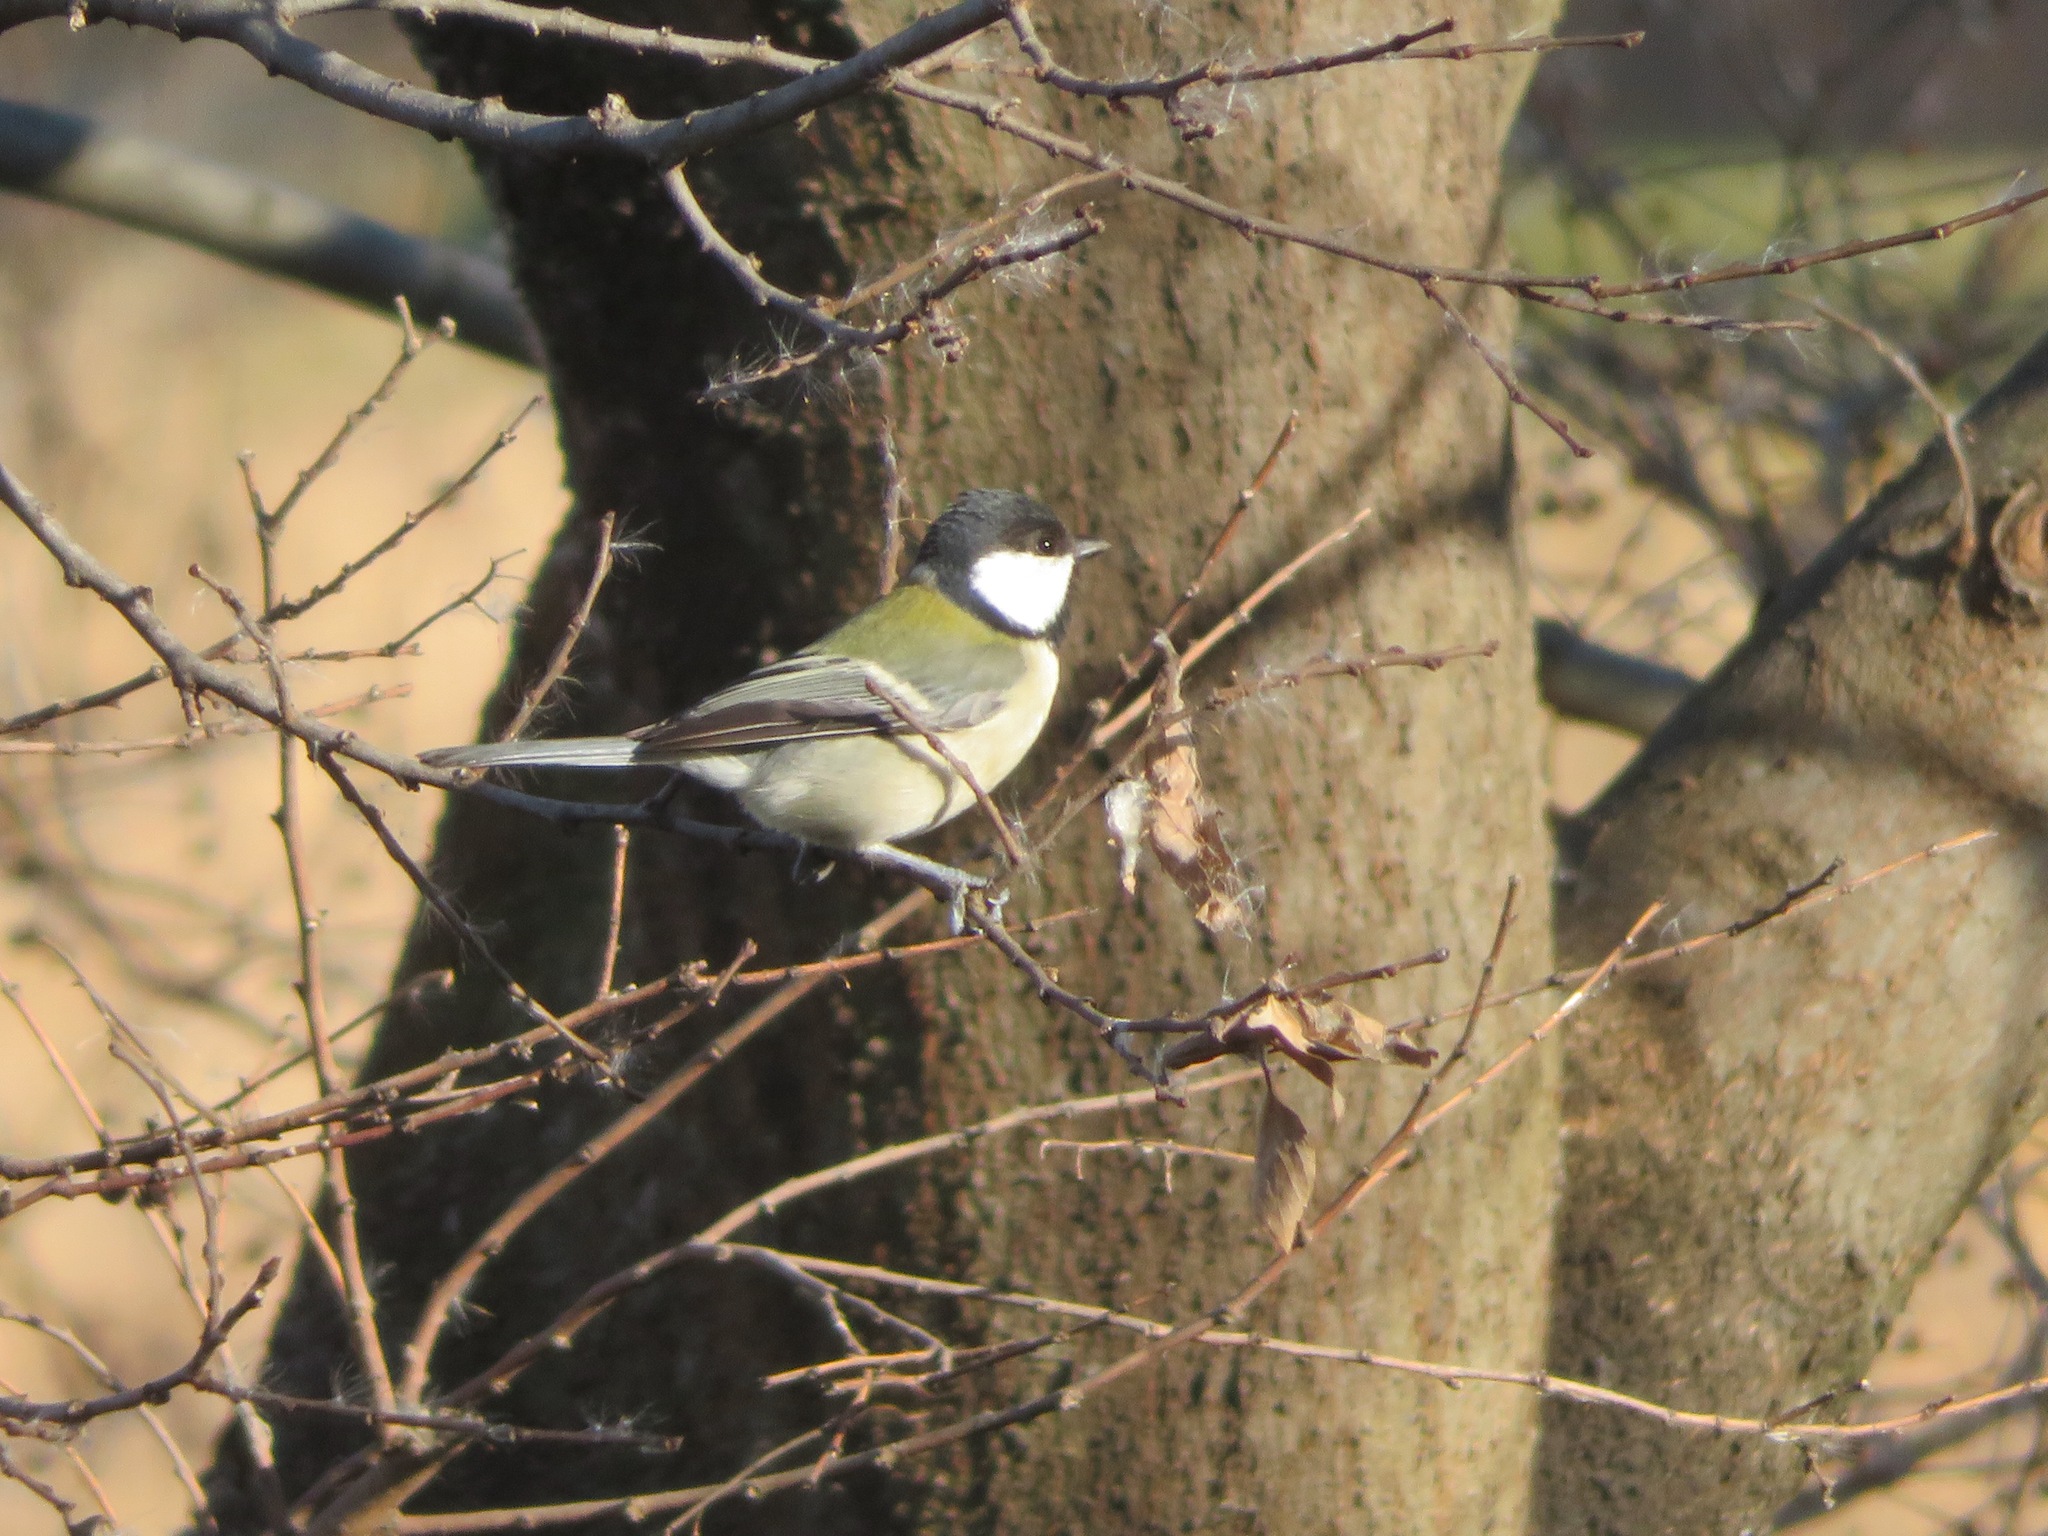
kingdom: Animalia
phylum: Chordata
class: Aves
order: Passeriformes
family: Paridae
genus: Parus
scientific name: Parus minor
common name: Japanese tit
